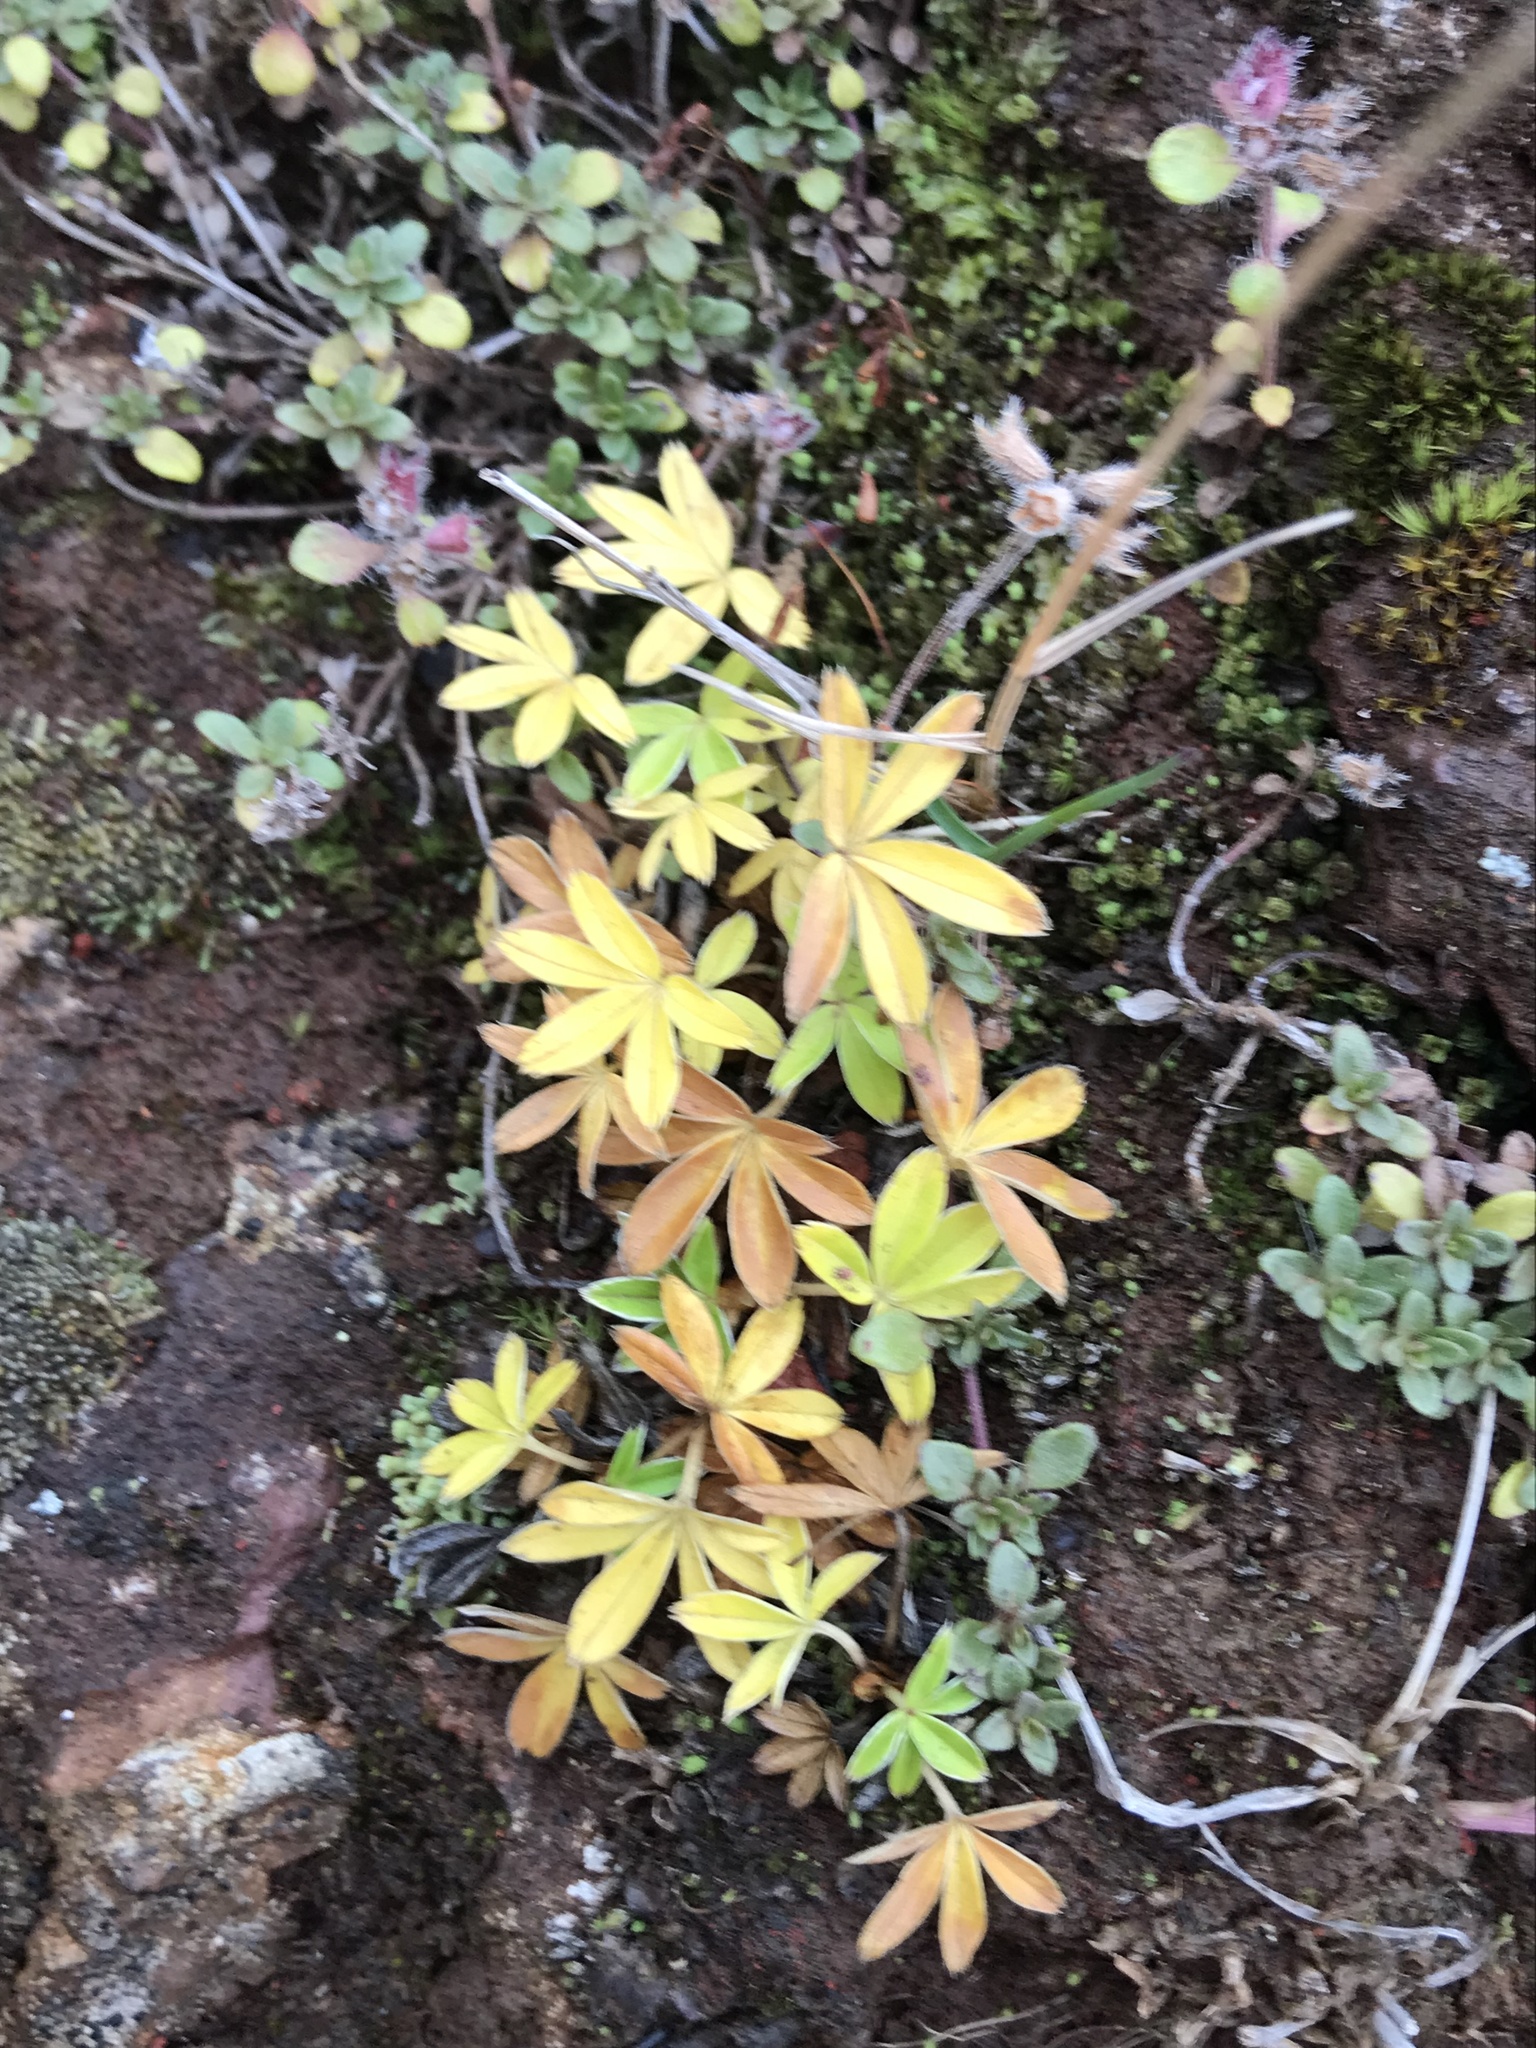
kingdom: Plantae
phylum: Tracheophyta
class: Magnoliopsida
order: Rosales
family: Rosaceae
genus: Alchemilla
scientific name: Alchemilla alpina
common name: Alpine lady's-mantle
